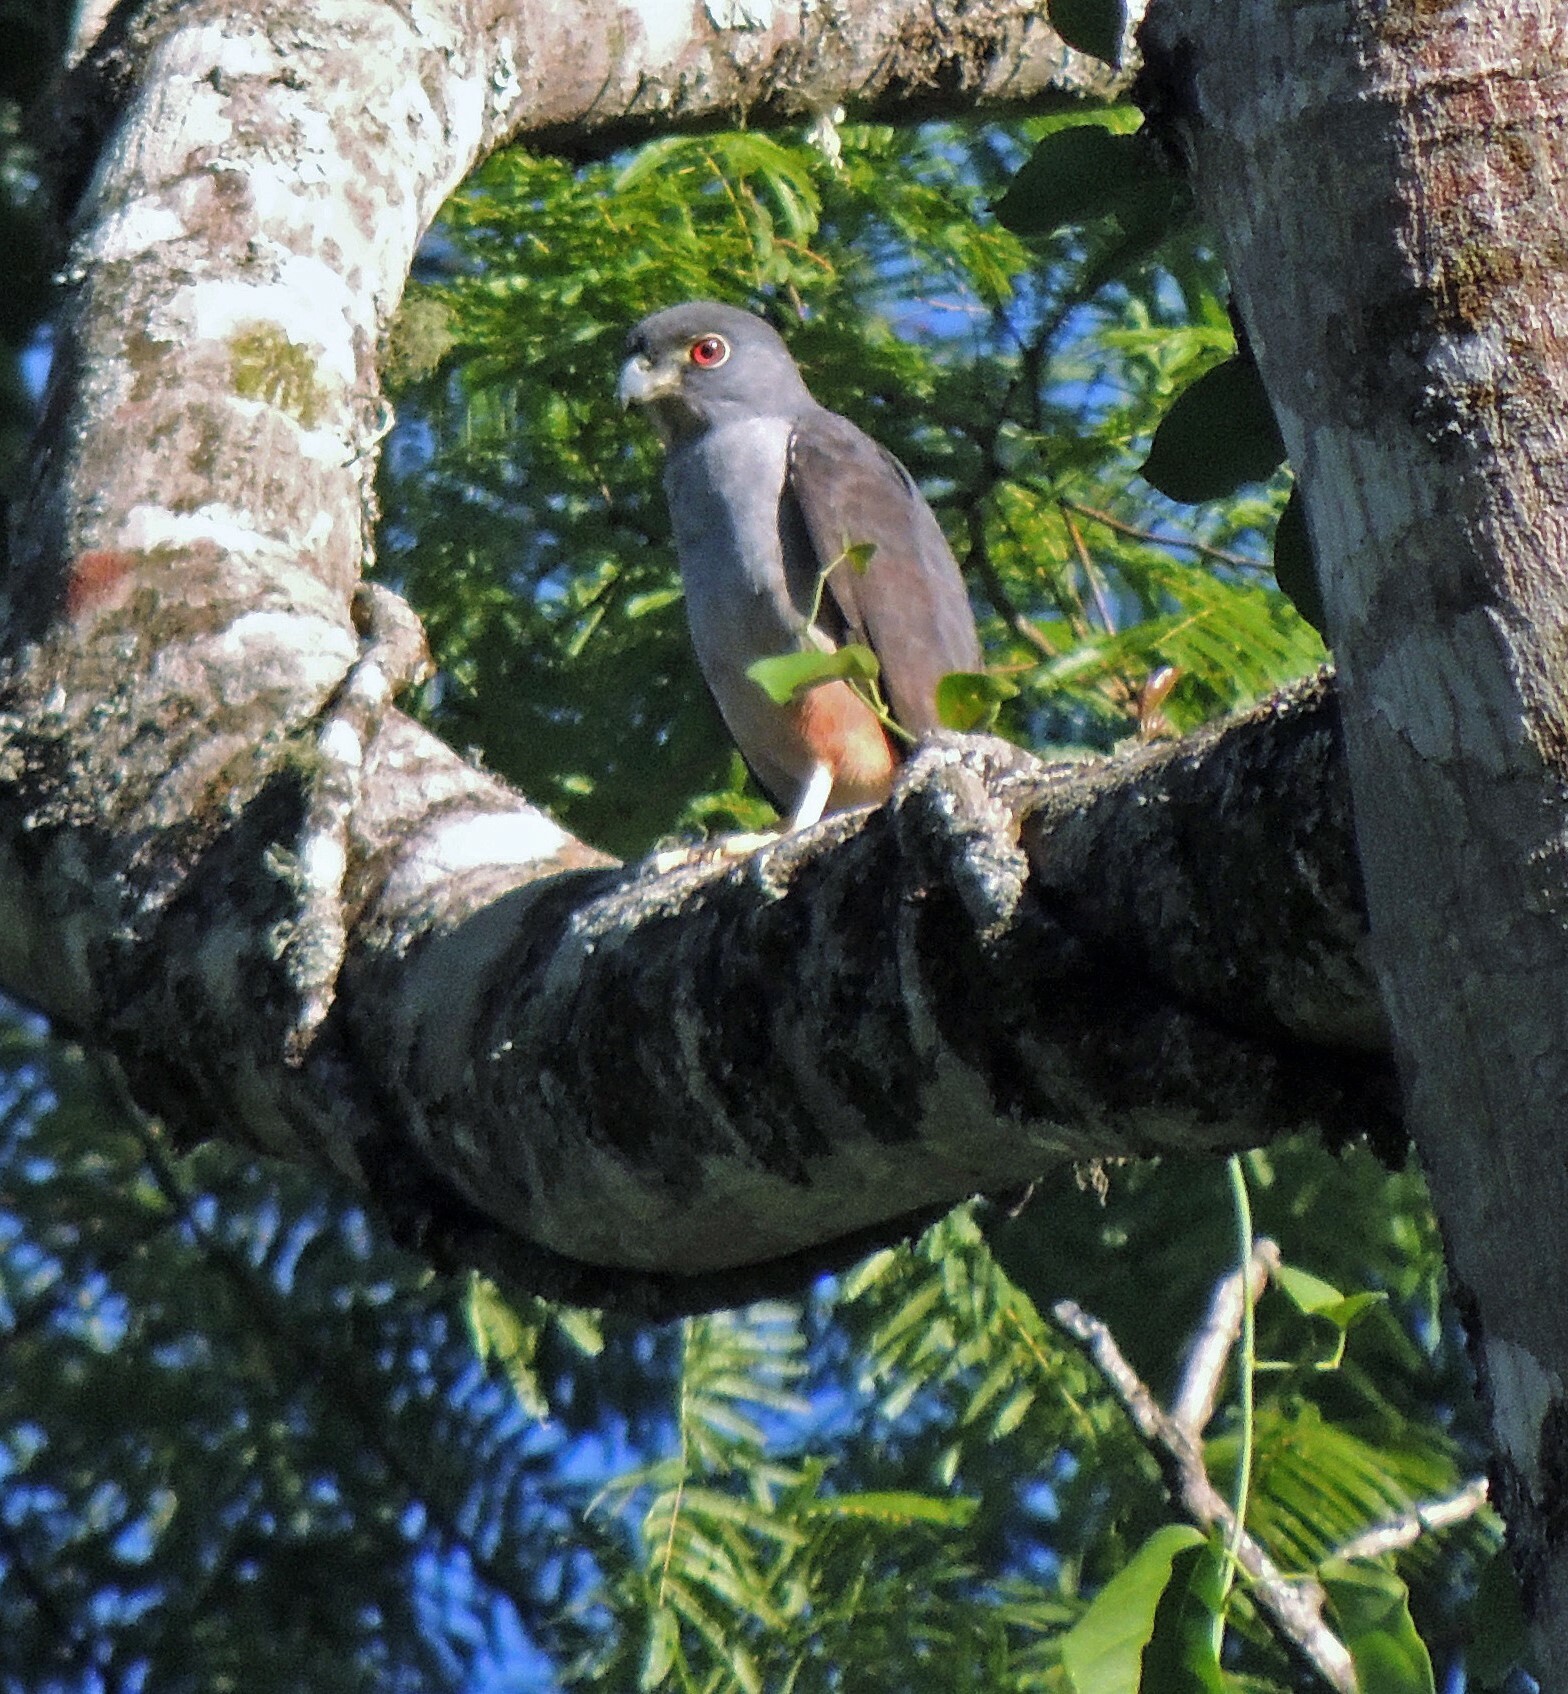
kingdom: Animalia
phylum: Chordata
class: Aves
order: Accipitriformes
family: Accipitridae
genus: Harpagus
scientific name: Harpagus diodon
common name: Rufous-thighed kite
